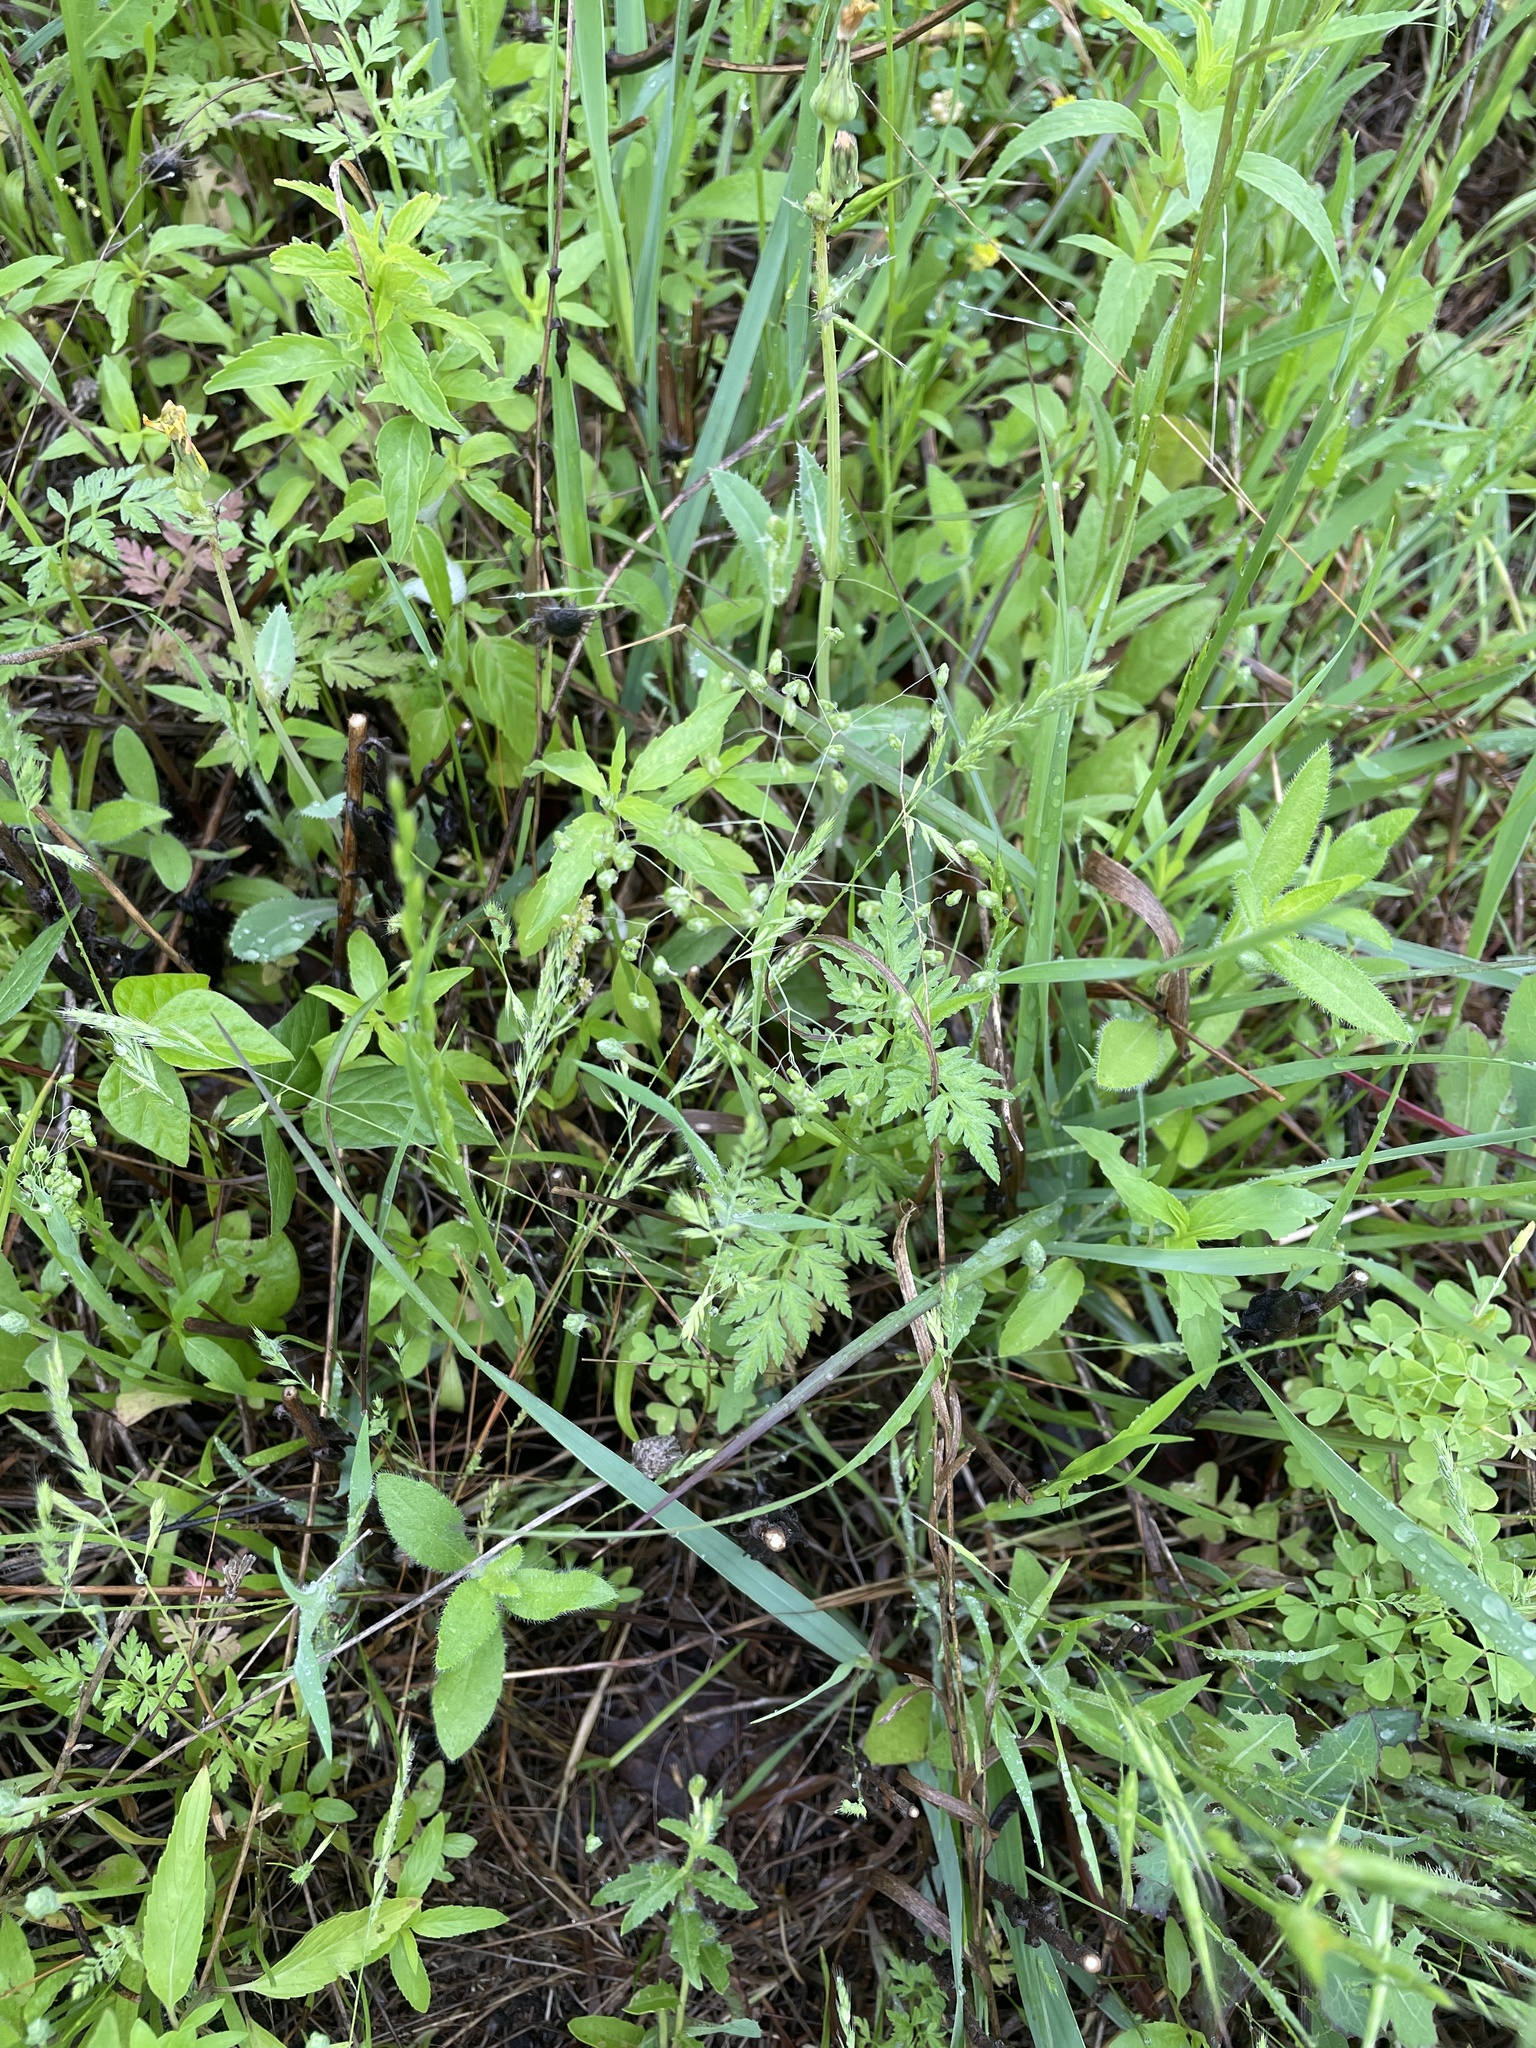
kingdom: Plantae
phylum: Tracheophyta
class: Liliopsida
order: Poales
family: Poaceae
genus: Briza
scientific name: Briza minor
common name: Lesser quaking-grass
